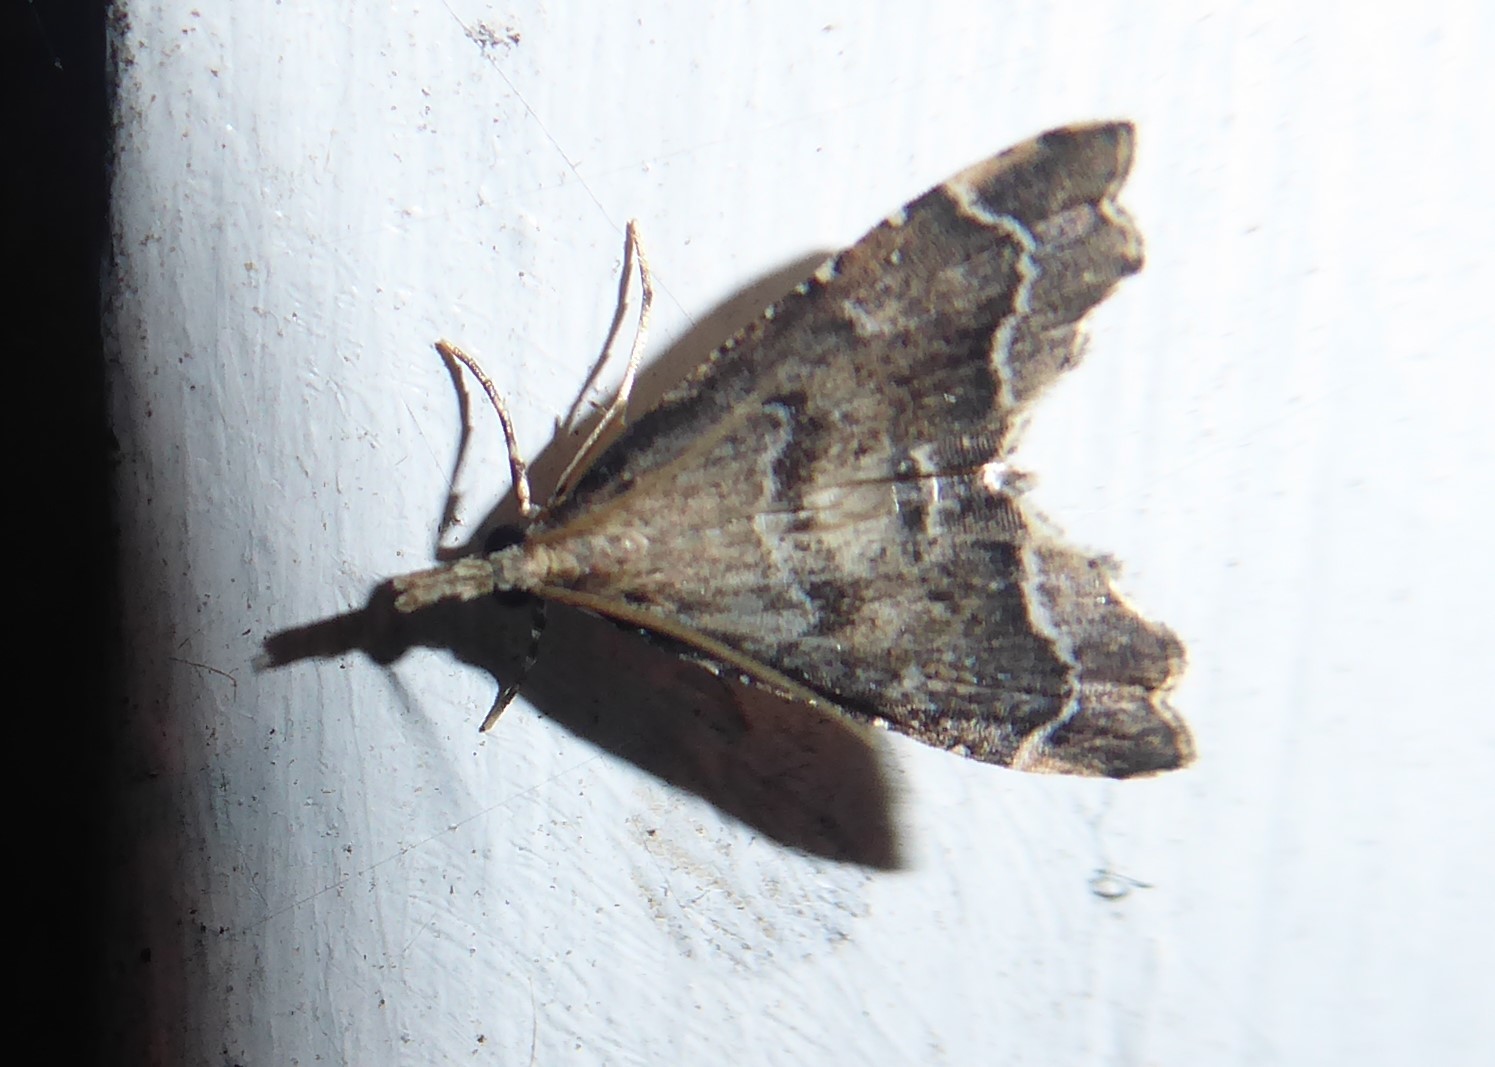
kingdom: Animalia
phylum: Arthropoda
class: Insecta
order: Lepidoptera
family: Crambidae
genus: Diplopseustis
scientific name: Diplopseustis perieresalis
